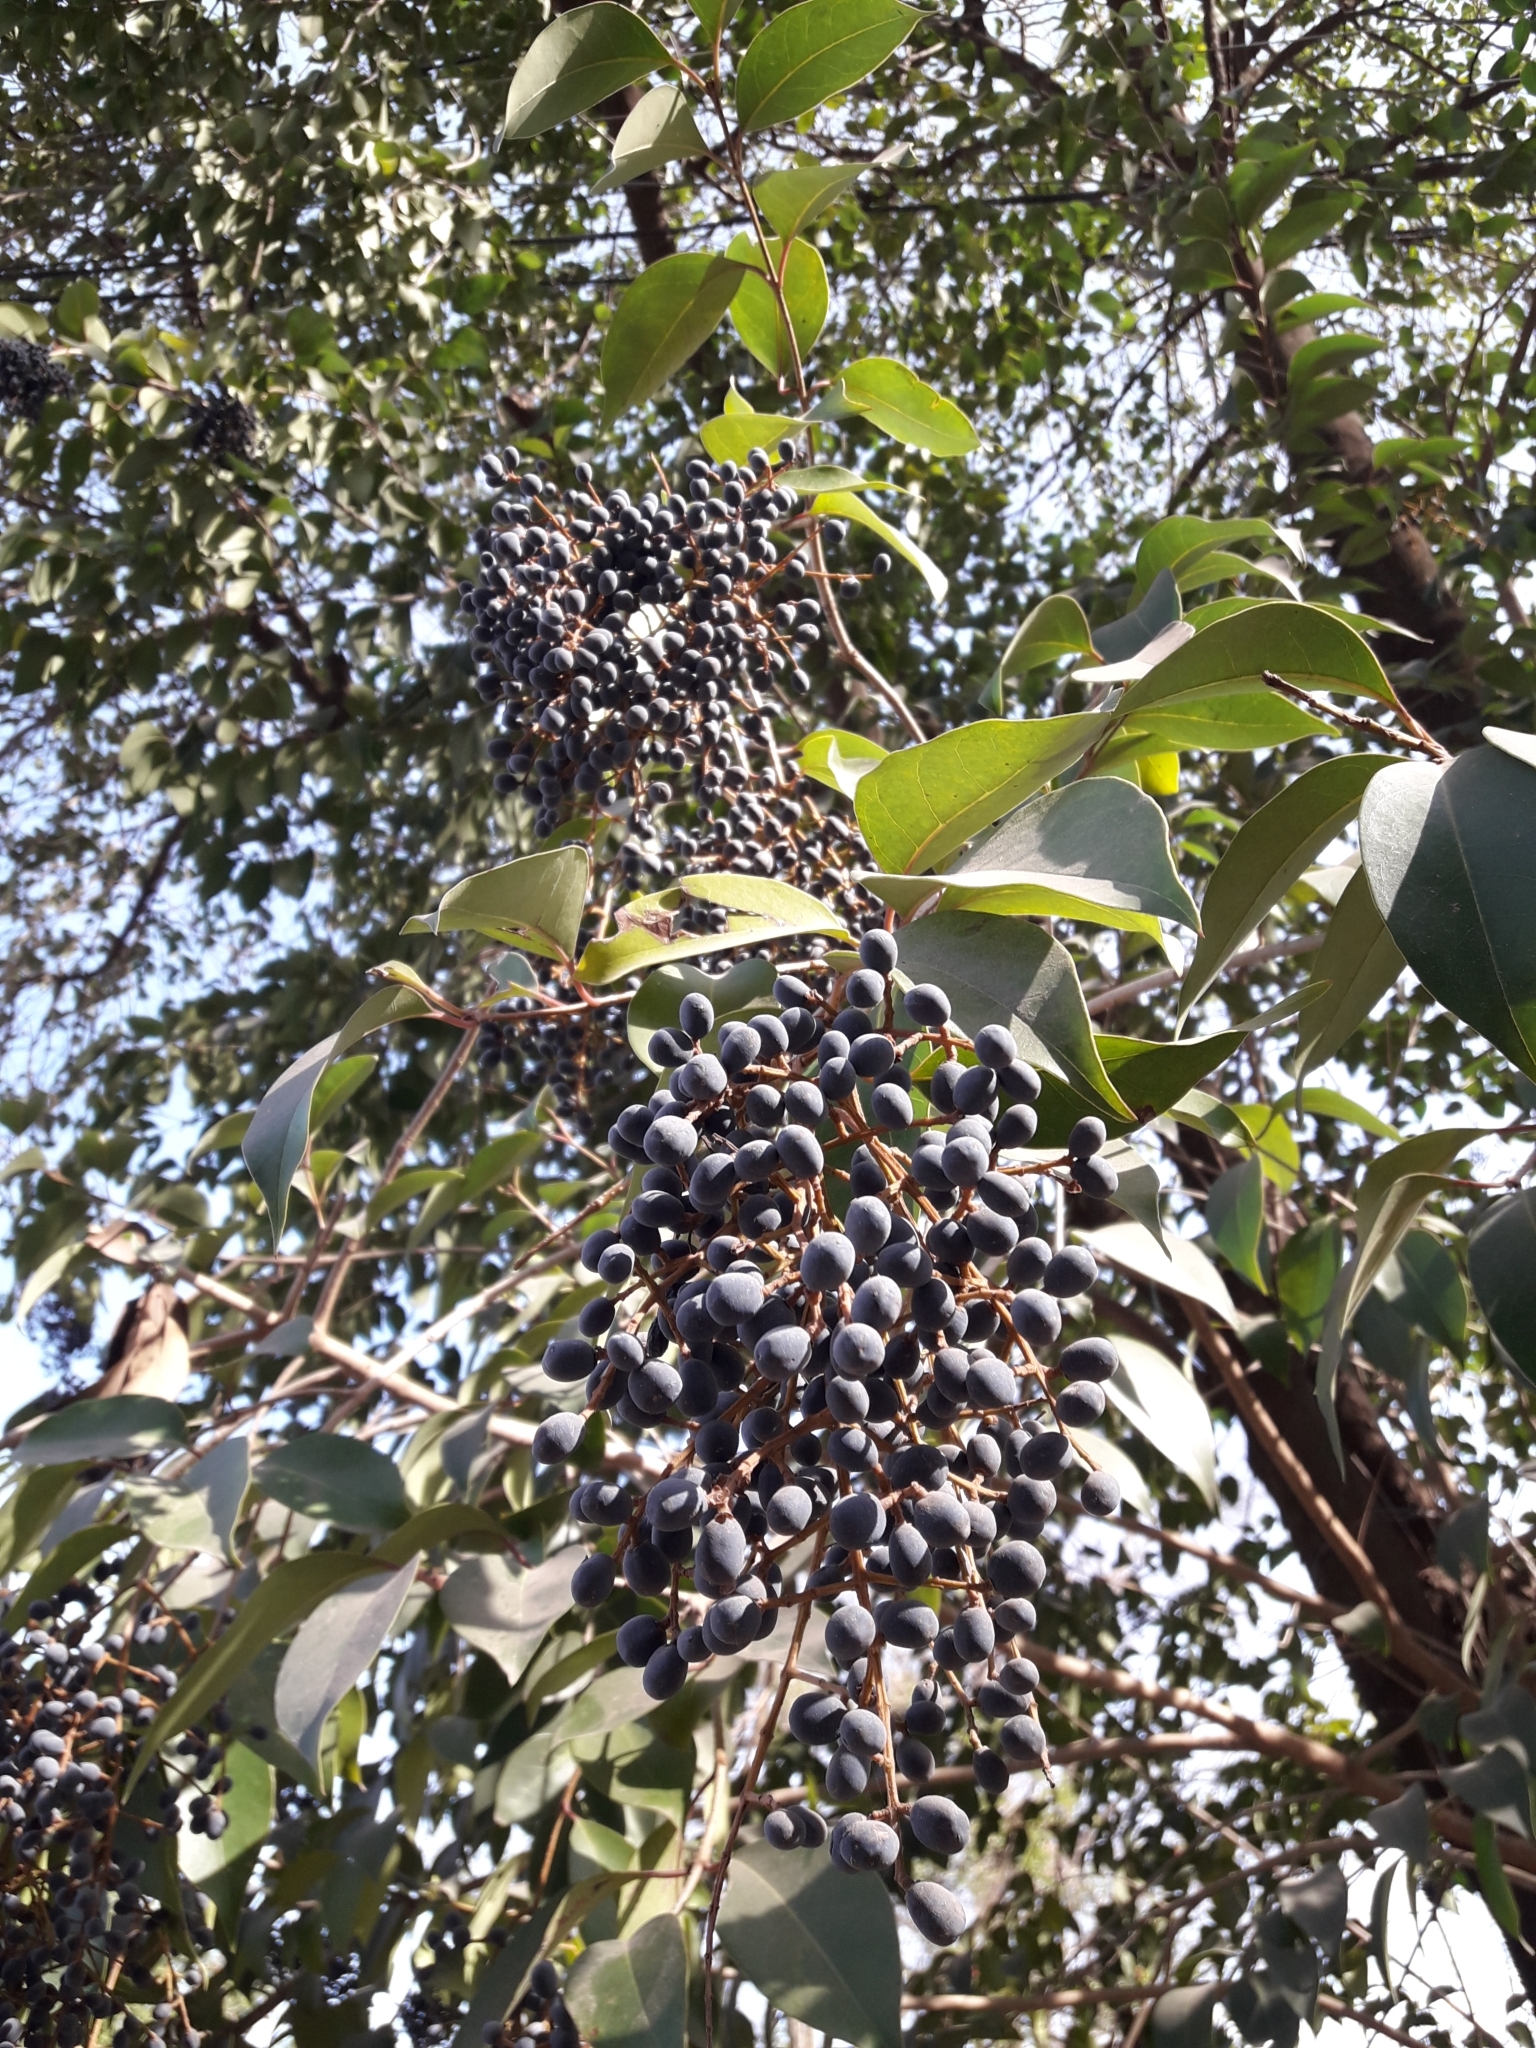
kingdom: Plantae
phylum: Tracheophyta
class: Magnoliopsida
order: Lamiales
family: Oleaceae
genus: Ligustrum
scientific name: Ligustrum lucidum
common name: Glossy privet
